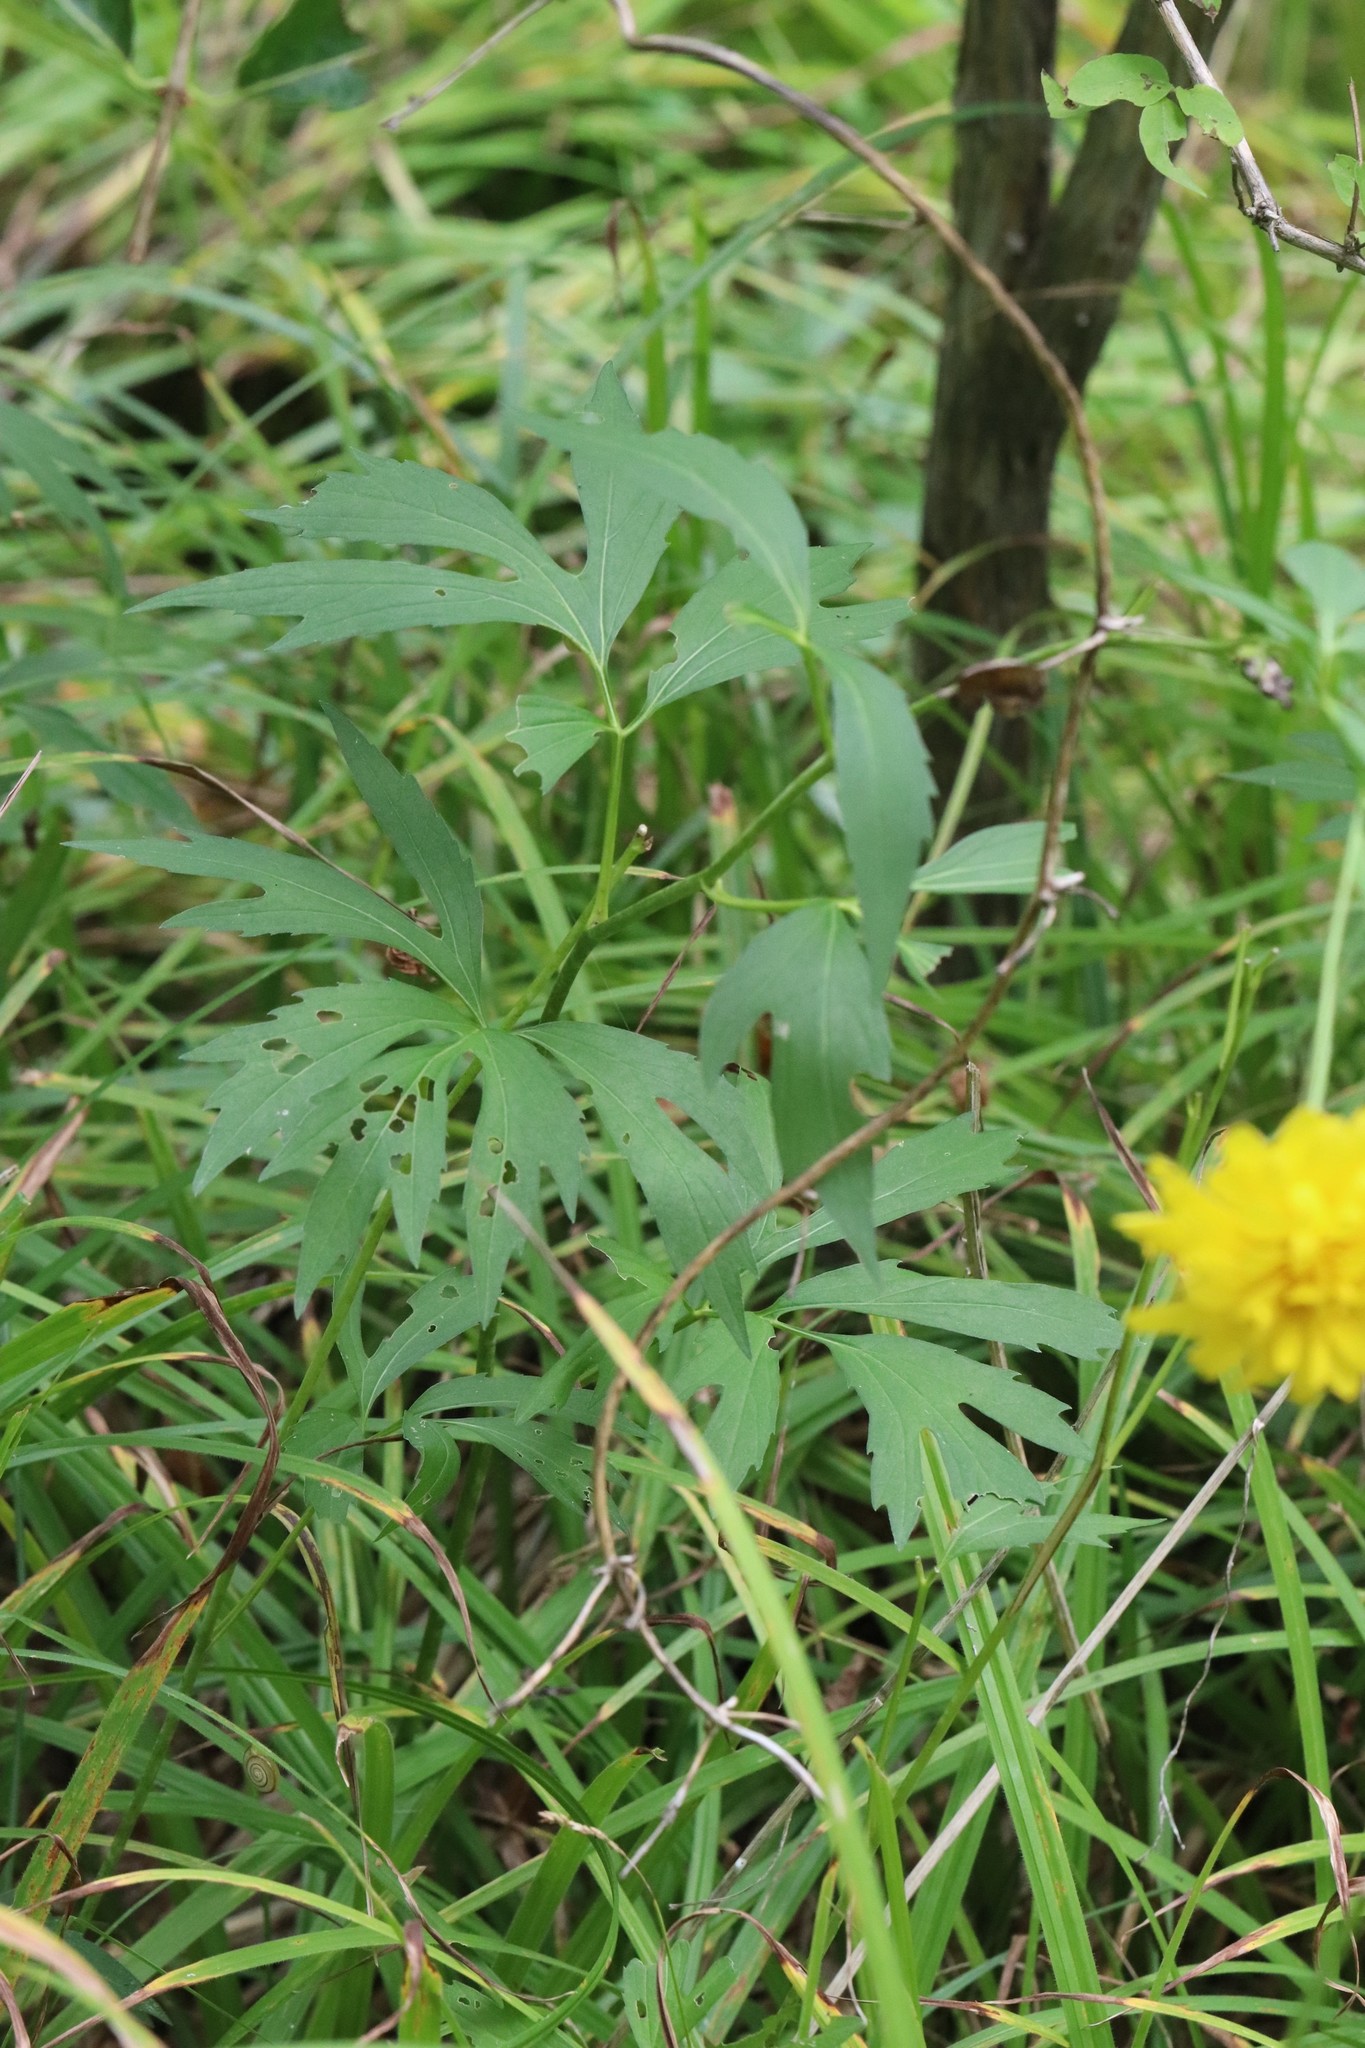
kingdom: Plantae
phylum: Tracheophyta
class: Magnoliopsida
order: Asterales
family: Asteraceae
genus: Rudbeckia
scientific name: Rudbeckia laciniata
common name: Coneflower
